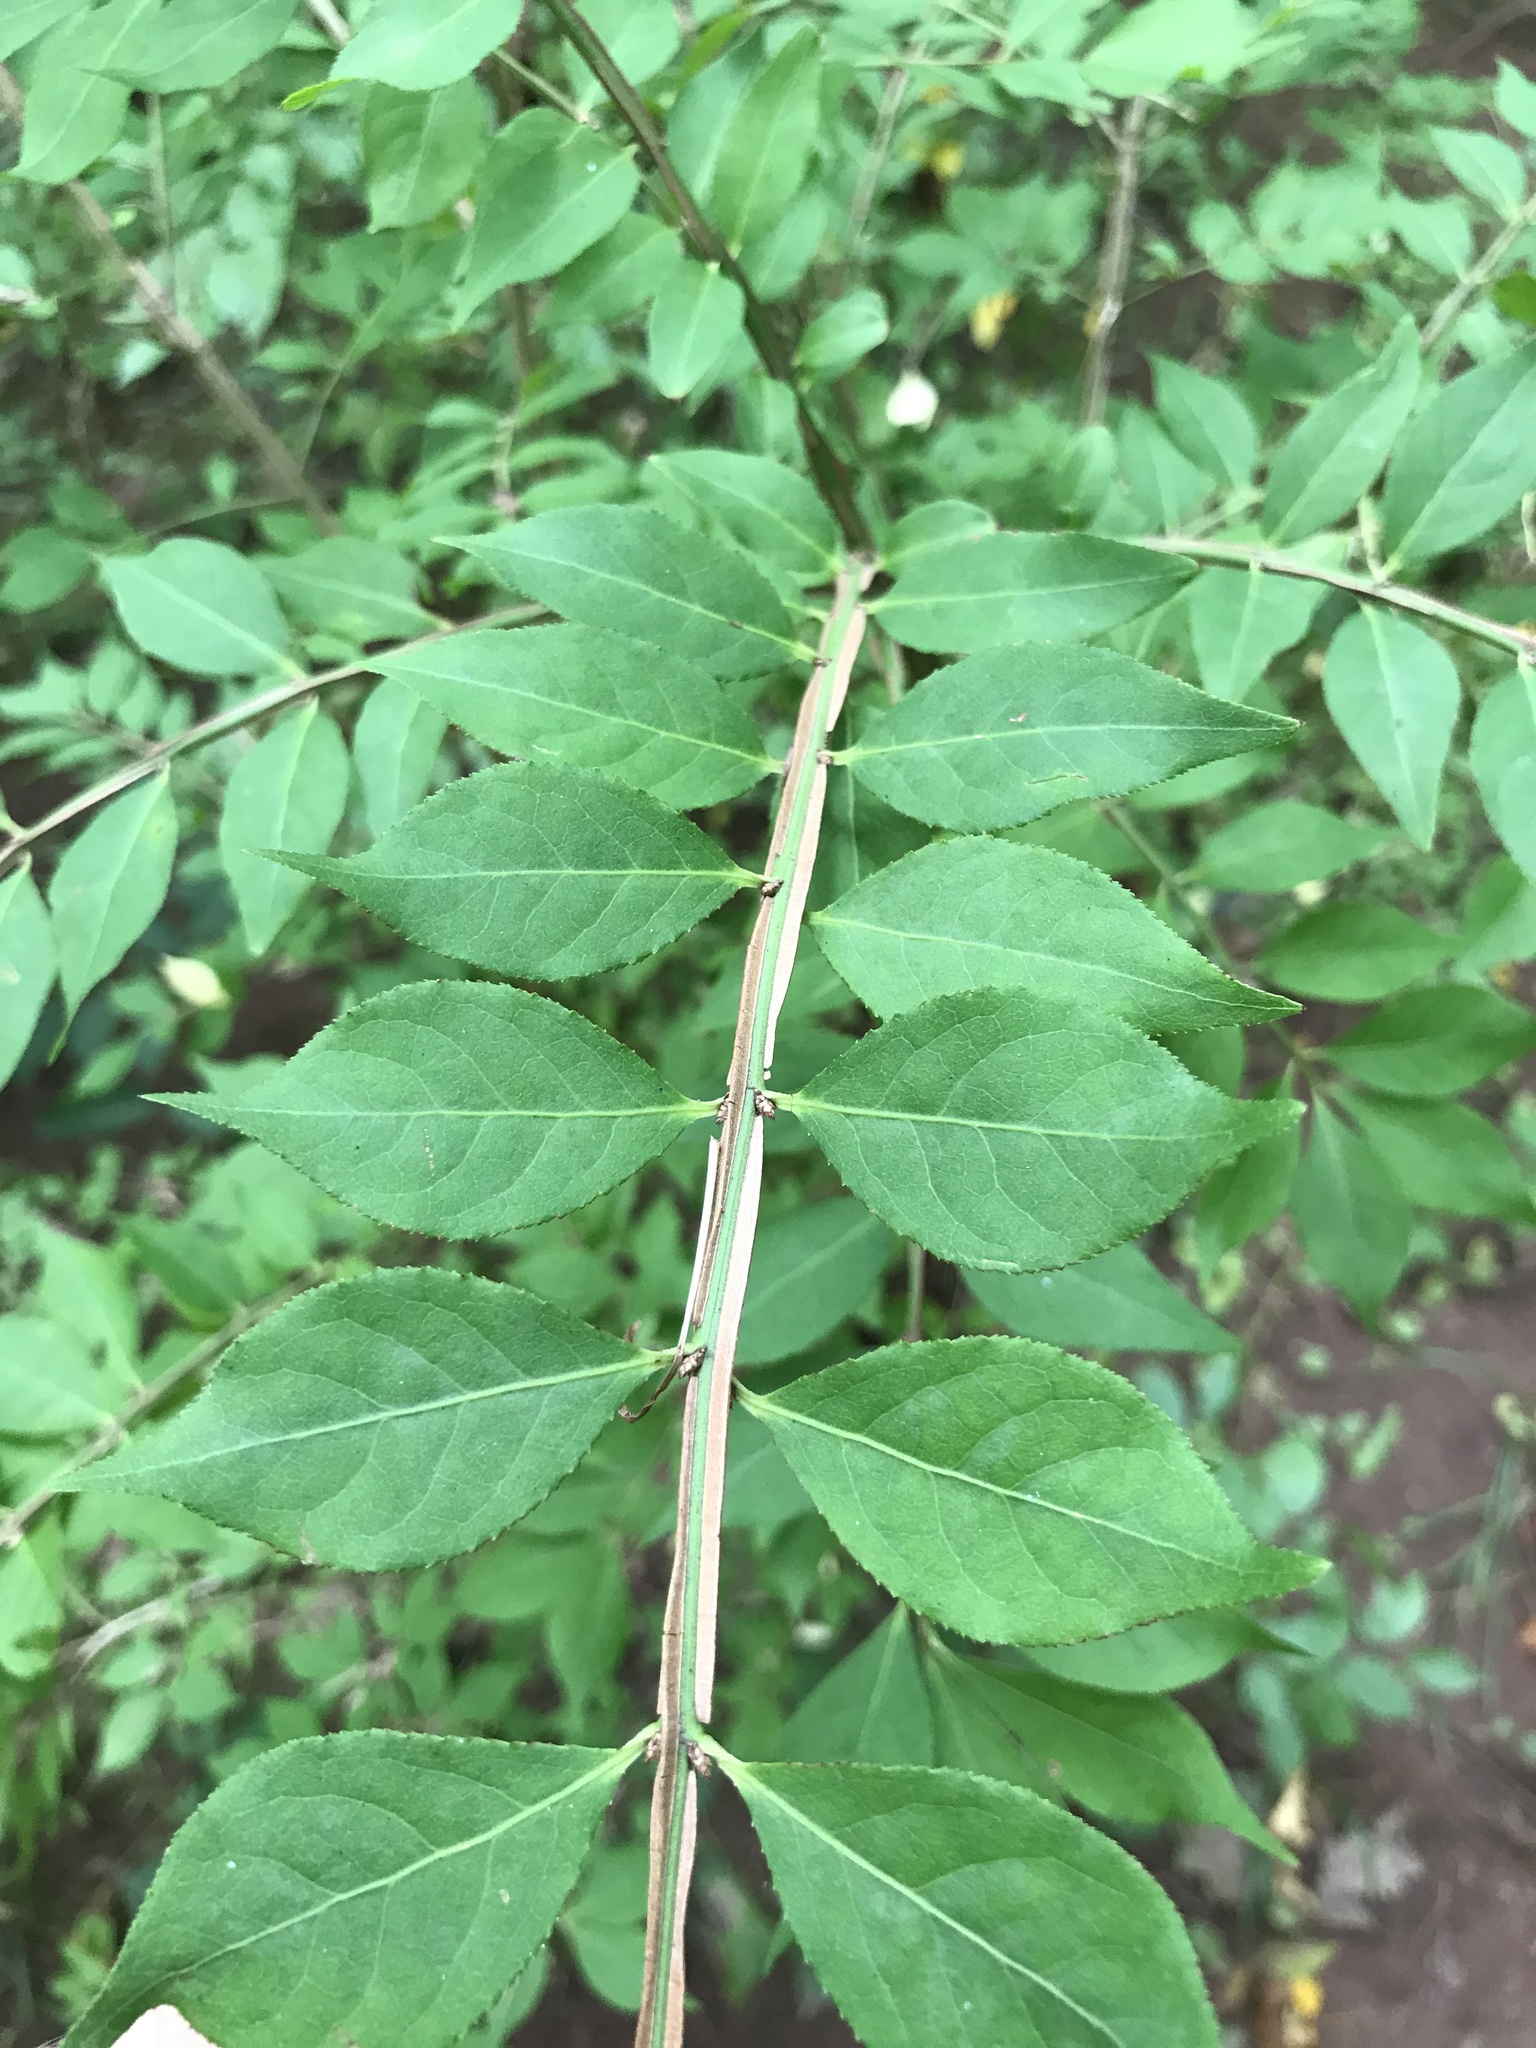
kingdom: Plantae
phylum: Tracheophyta
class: Magnoliopsida
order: Celastrales
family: Celastraceae
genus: Euonymus
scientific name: Euonymus alatus
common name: Winged euonymus
